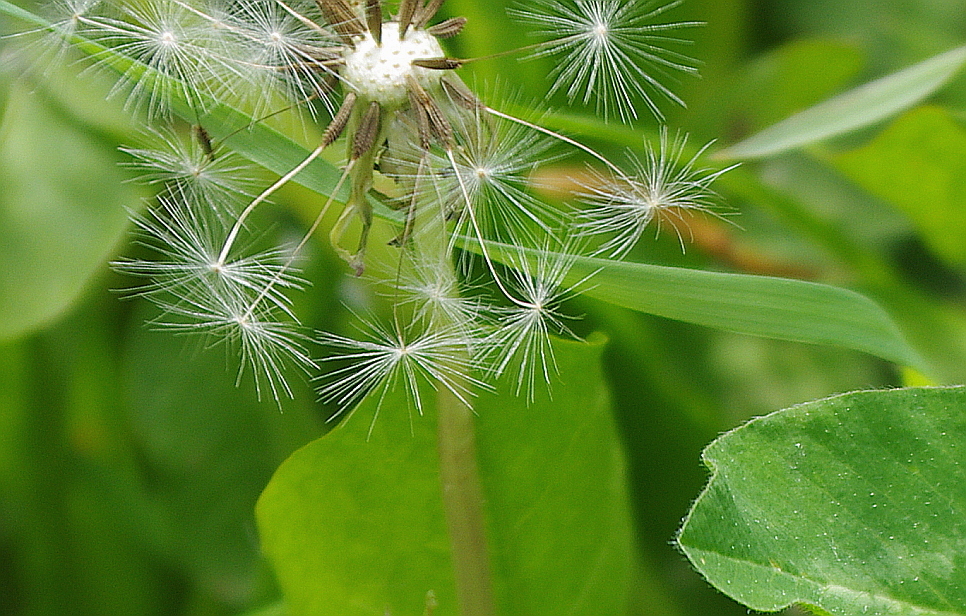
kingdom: Plantae
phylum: Tracheophyta
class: Magnoliopsida
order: Asterales
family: Asteraceae
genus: Taraxacum
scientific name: Taraxacum officinale
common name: Common dandelion
